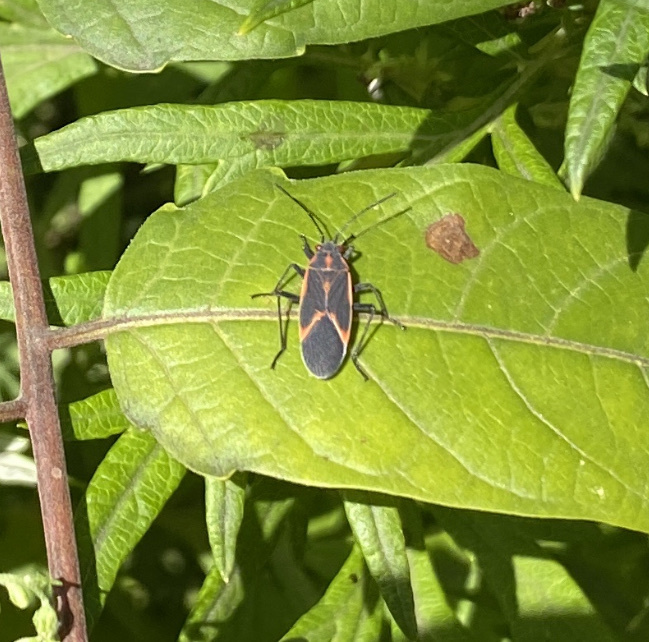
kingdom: Animalia
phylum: Arthropoda
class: Insecta
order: Hemiptera
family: Rhopalidae
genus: Boisea
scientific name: Boisea trivittata
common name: Boxelder bug
